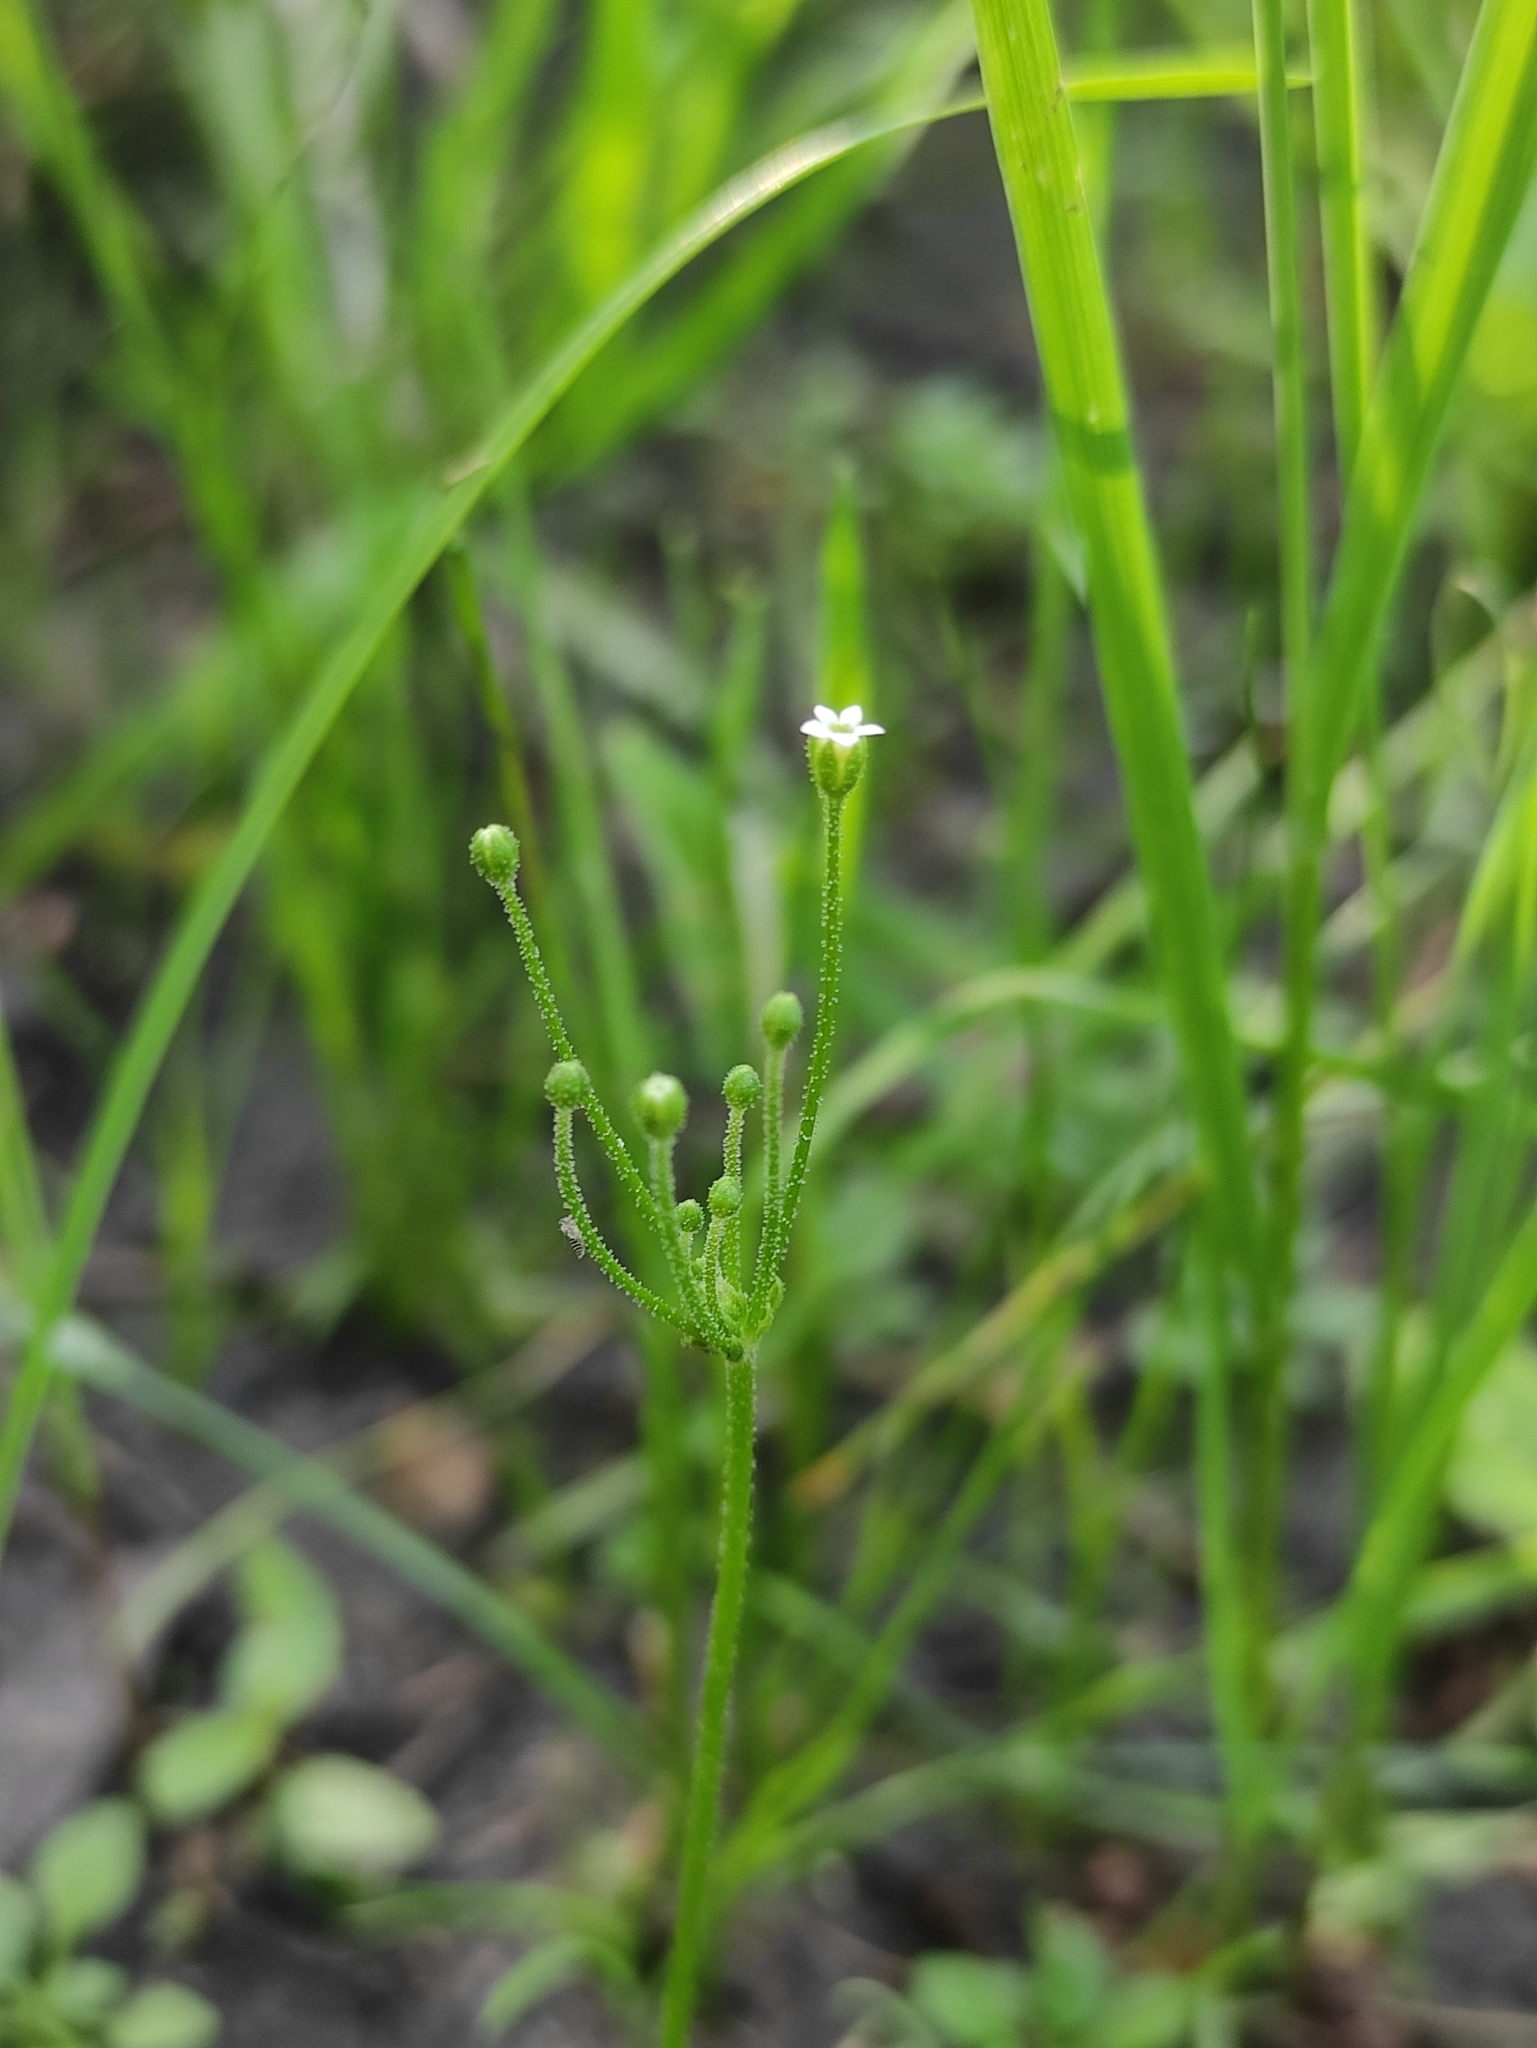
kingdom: Plantae
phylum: Tracheophyta
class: Magnoliopsida
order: Ericales
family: Primulaceae
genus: Androsace
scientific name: Androsace filiformis
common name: Filiform rock jasmine
